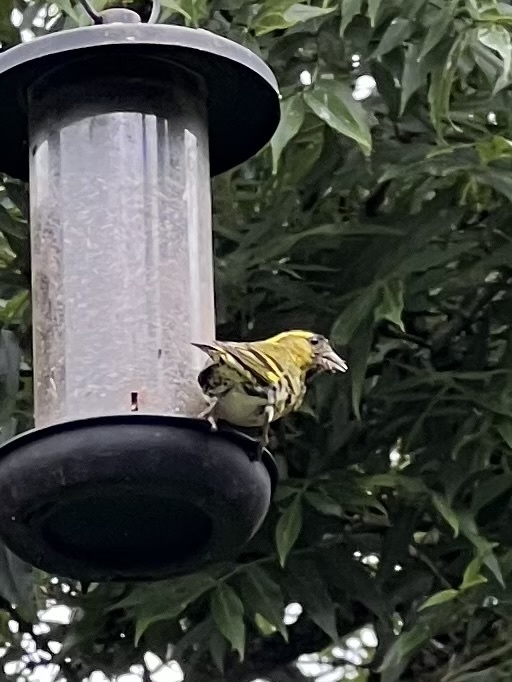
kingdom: Animalia
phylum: Chordata
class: Aves
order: Passeriformes
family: Fringillidae
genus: Spinus
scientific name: Spinus spinus
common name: Eurasian siskin
